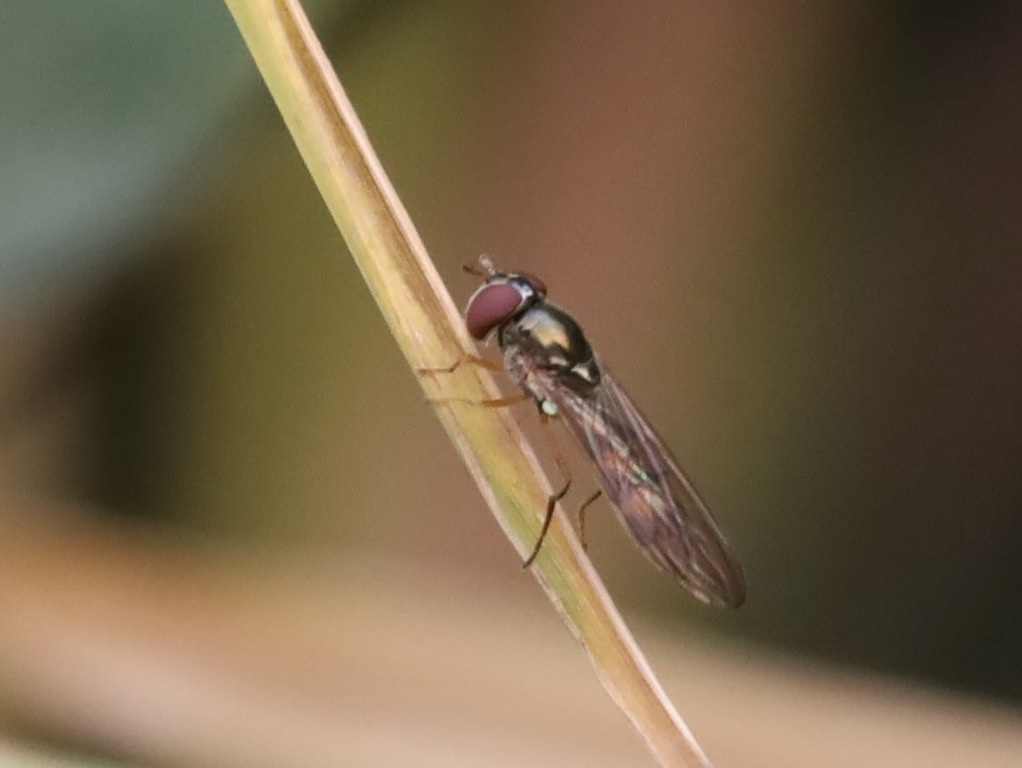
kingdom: Animalia
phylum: Arthropoda
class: Insecta
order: Diptera
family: Syrphidae
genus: Melanostoma
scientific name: Melanostoma mellina
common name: Hover fly
